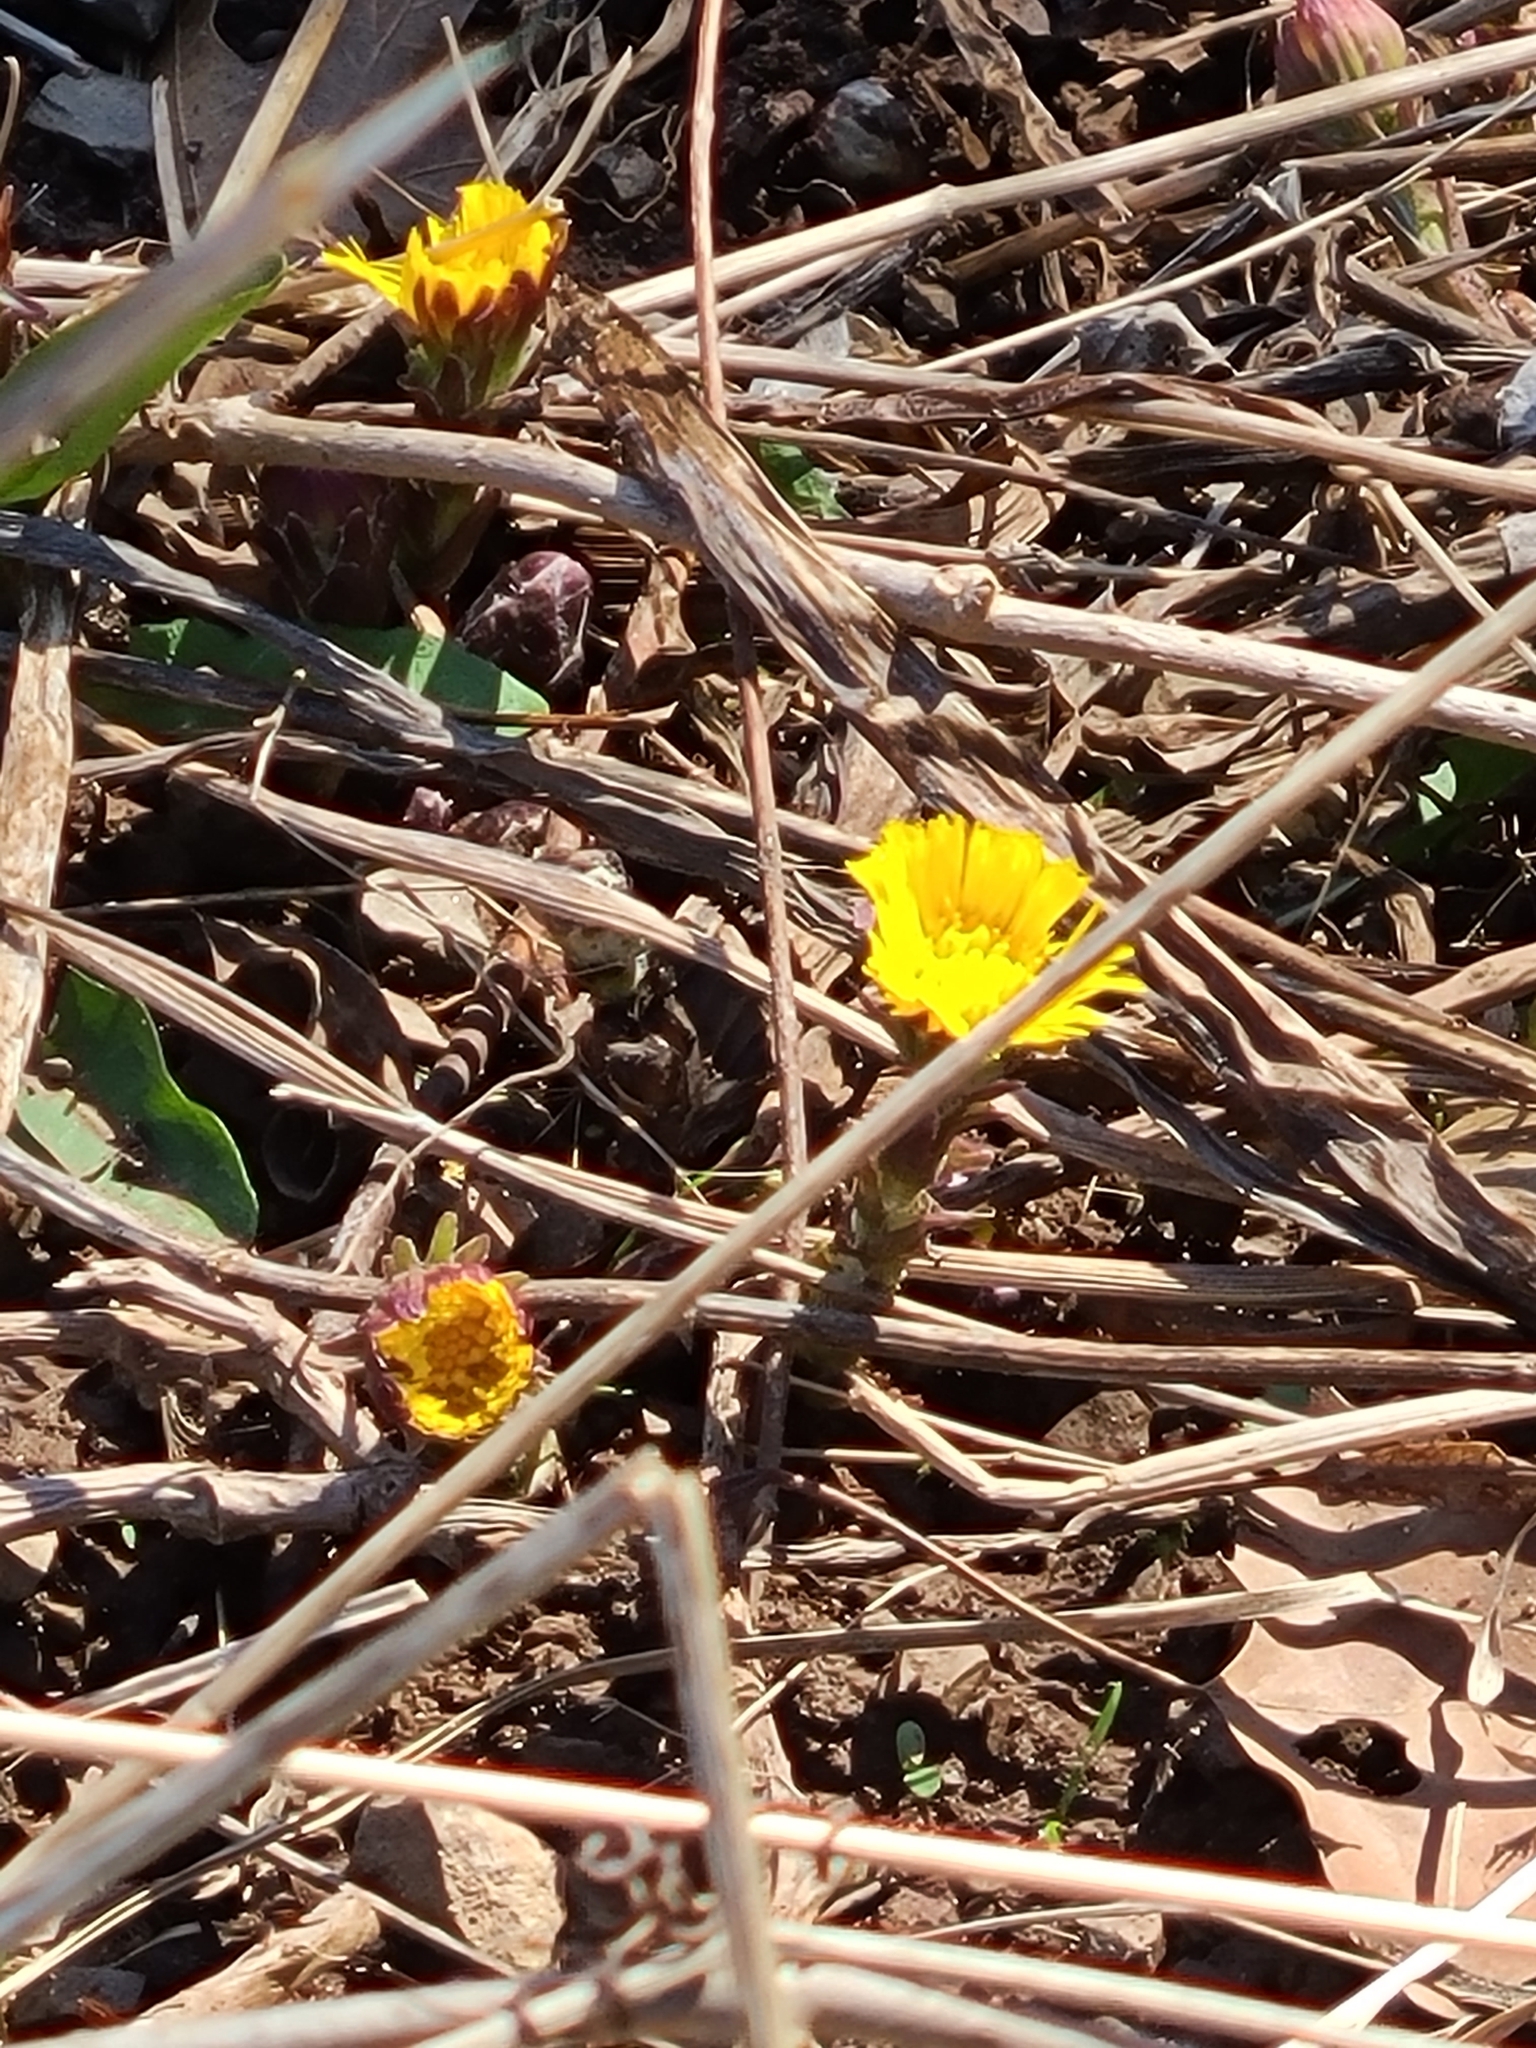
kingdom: Plantae
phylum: Tracheophyta
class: Magnoliopsida
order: Asterales
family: Asteraceae
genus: Tussilago
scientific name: Tussilago farfara
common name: Coltsfoot
